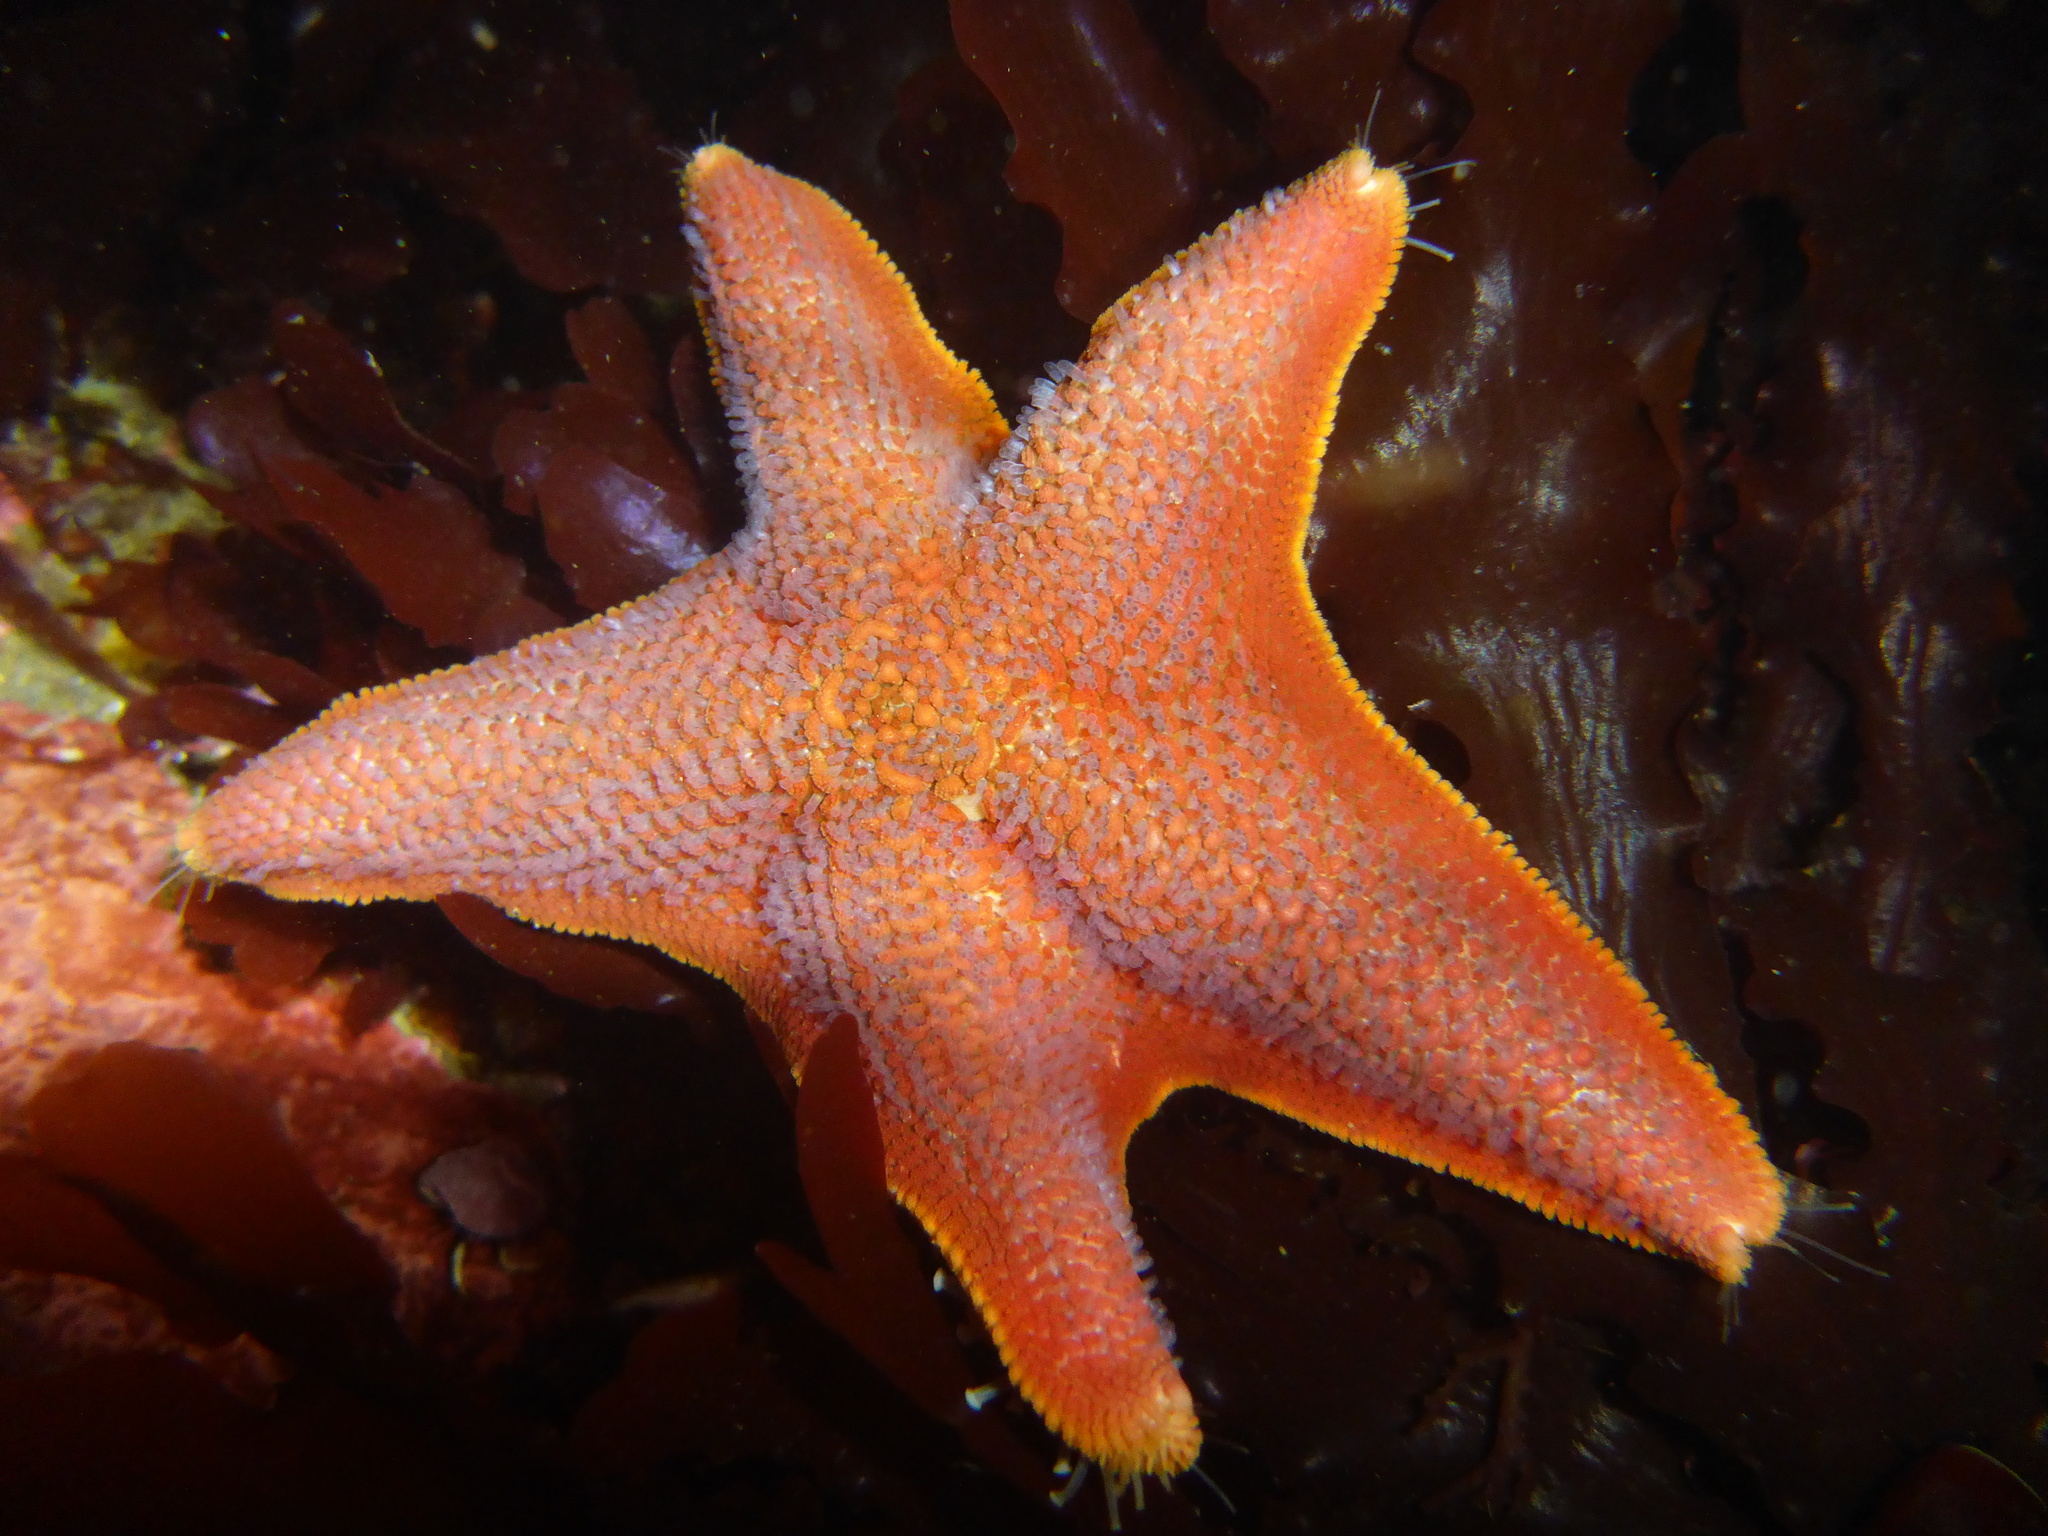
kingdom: Animalia
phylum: Echinodermata
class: Asteroidea
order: Valvatida
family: Asterinidae
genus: Patiria
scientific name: Patiria miniata
